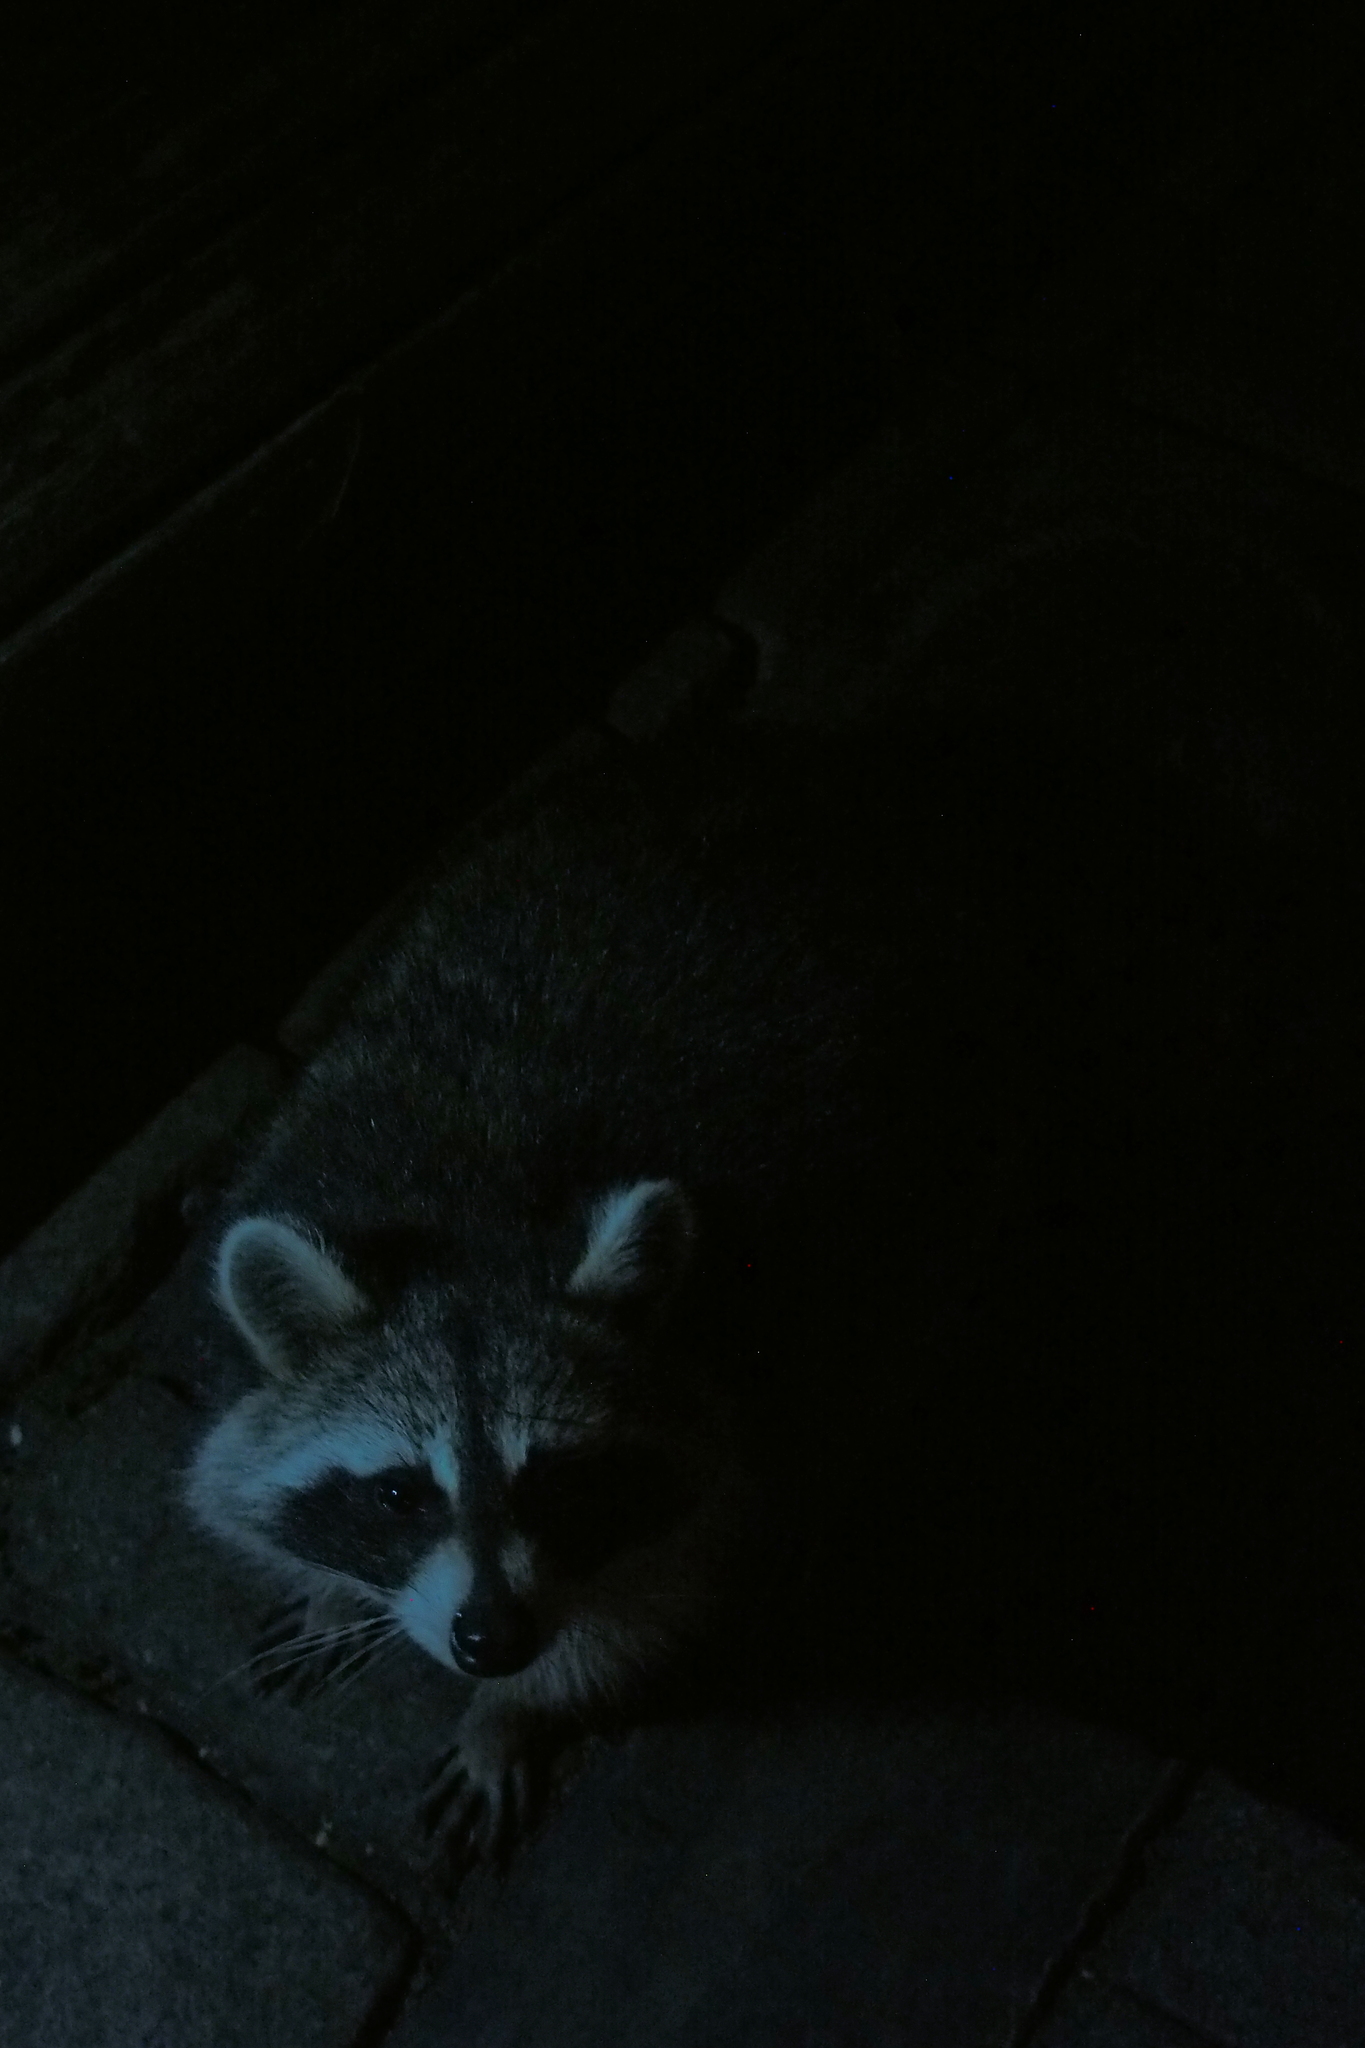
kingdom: Animalia
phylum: Chordata
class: Mammalia
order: Carnivora
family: Procyonidae
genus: Procyon
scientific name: Procyon lotor
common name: Raccoon
